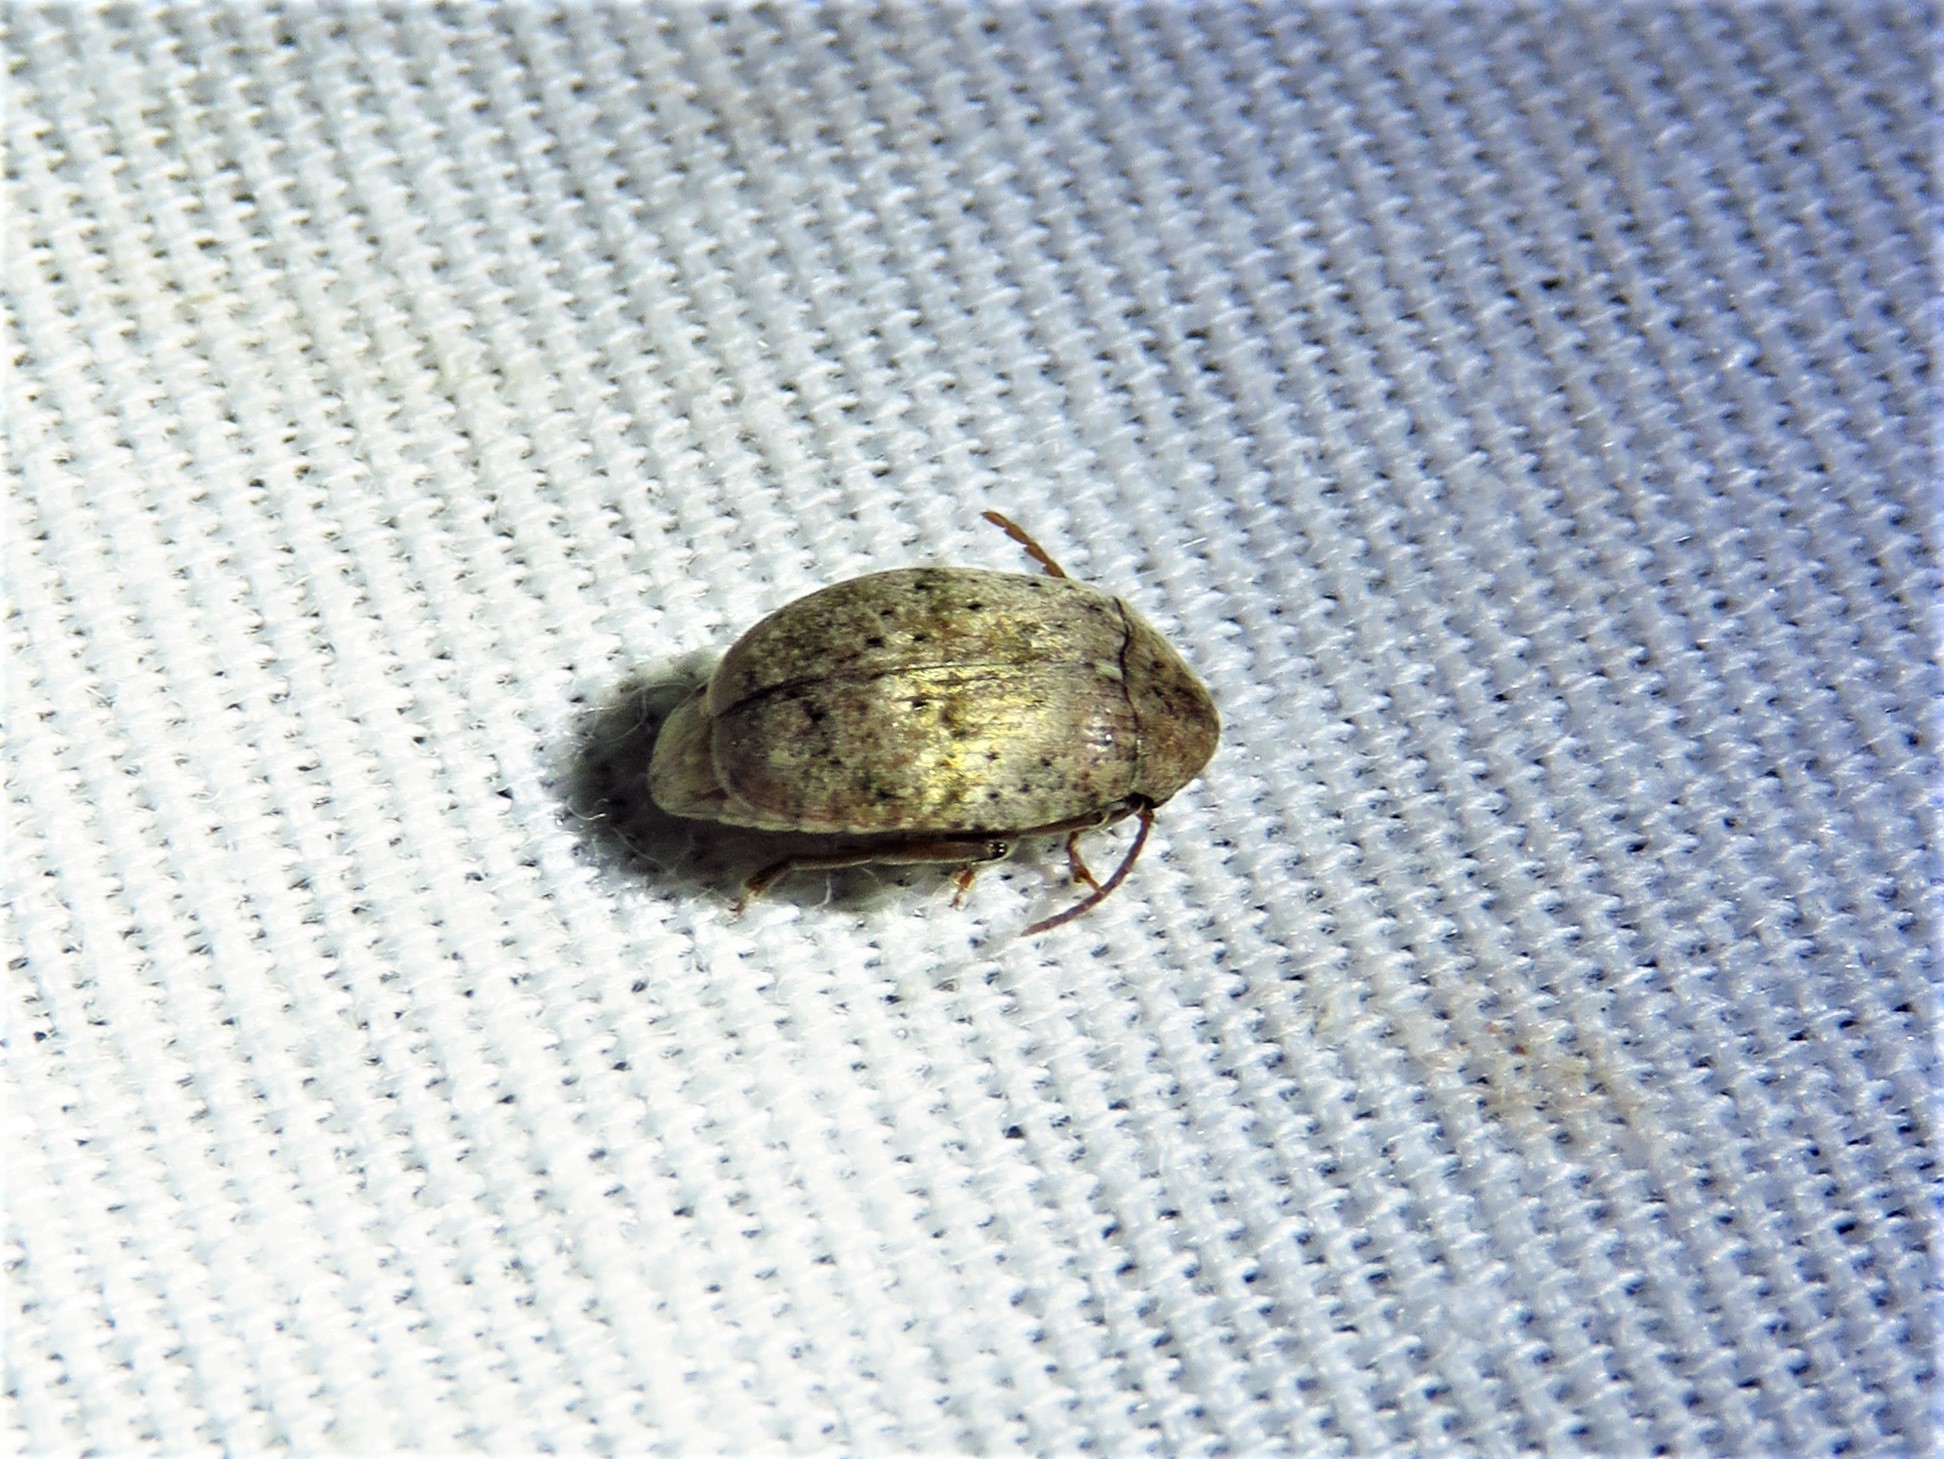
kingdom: Animalia
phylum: Arthropoda
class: Insecta
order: Coleoptera
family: Chrysomelidae
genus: Amblycerus
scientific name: Amblycerus robiniae
